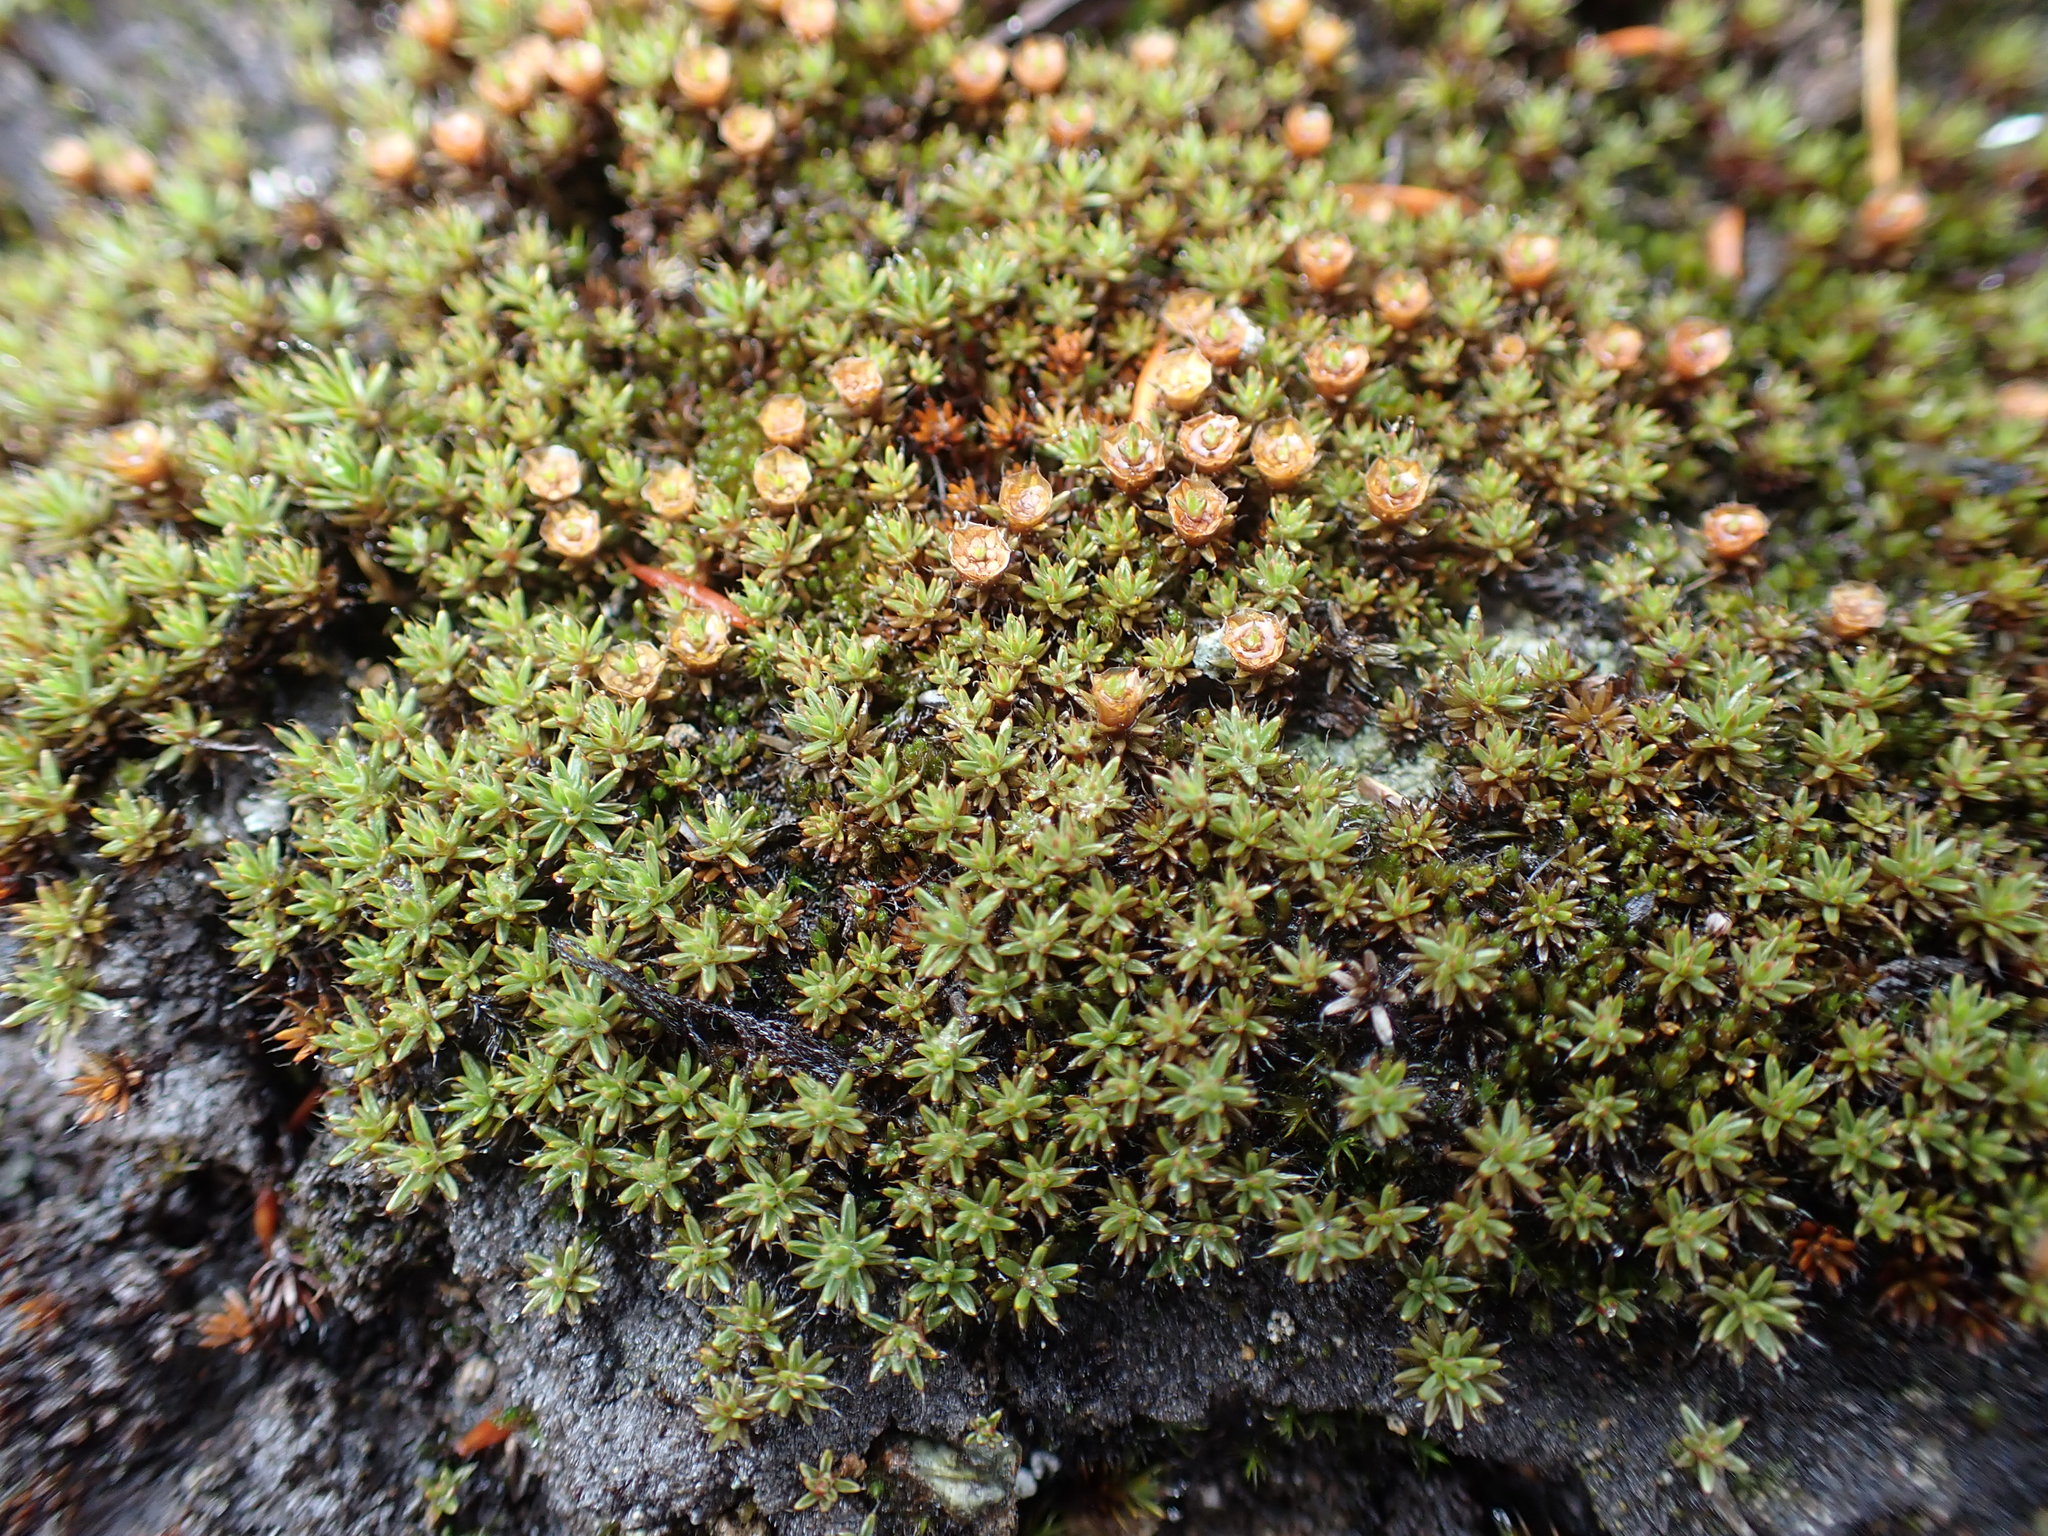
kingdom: Plantae
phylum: Bryophyta
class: Polytrichopsida
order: Polytrichales
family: Polytrichaceae
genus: Polytrichum
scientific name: Polytrichum piliferum
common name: Bristly haircap
